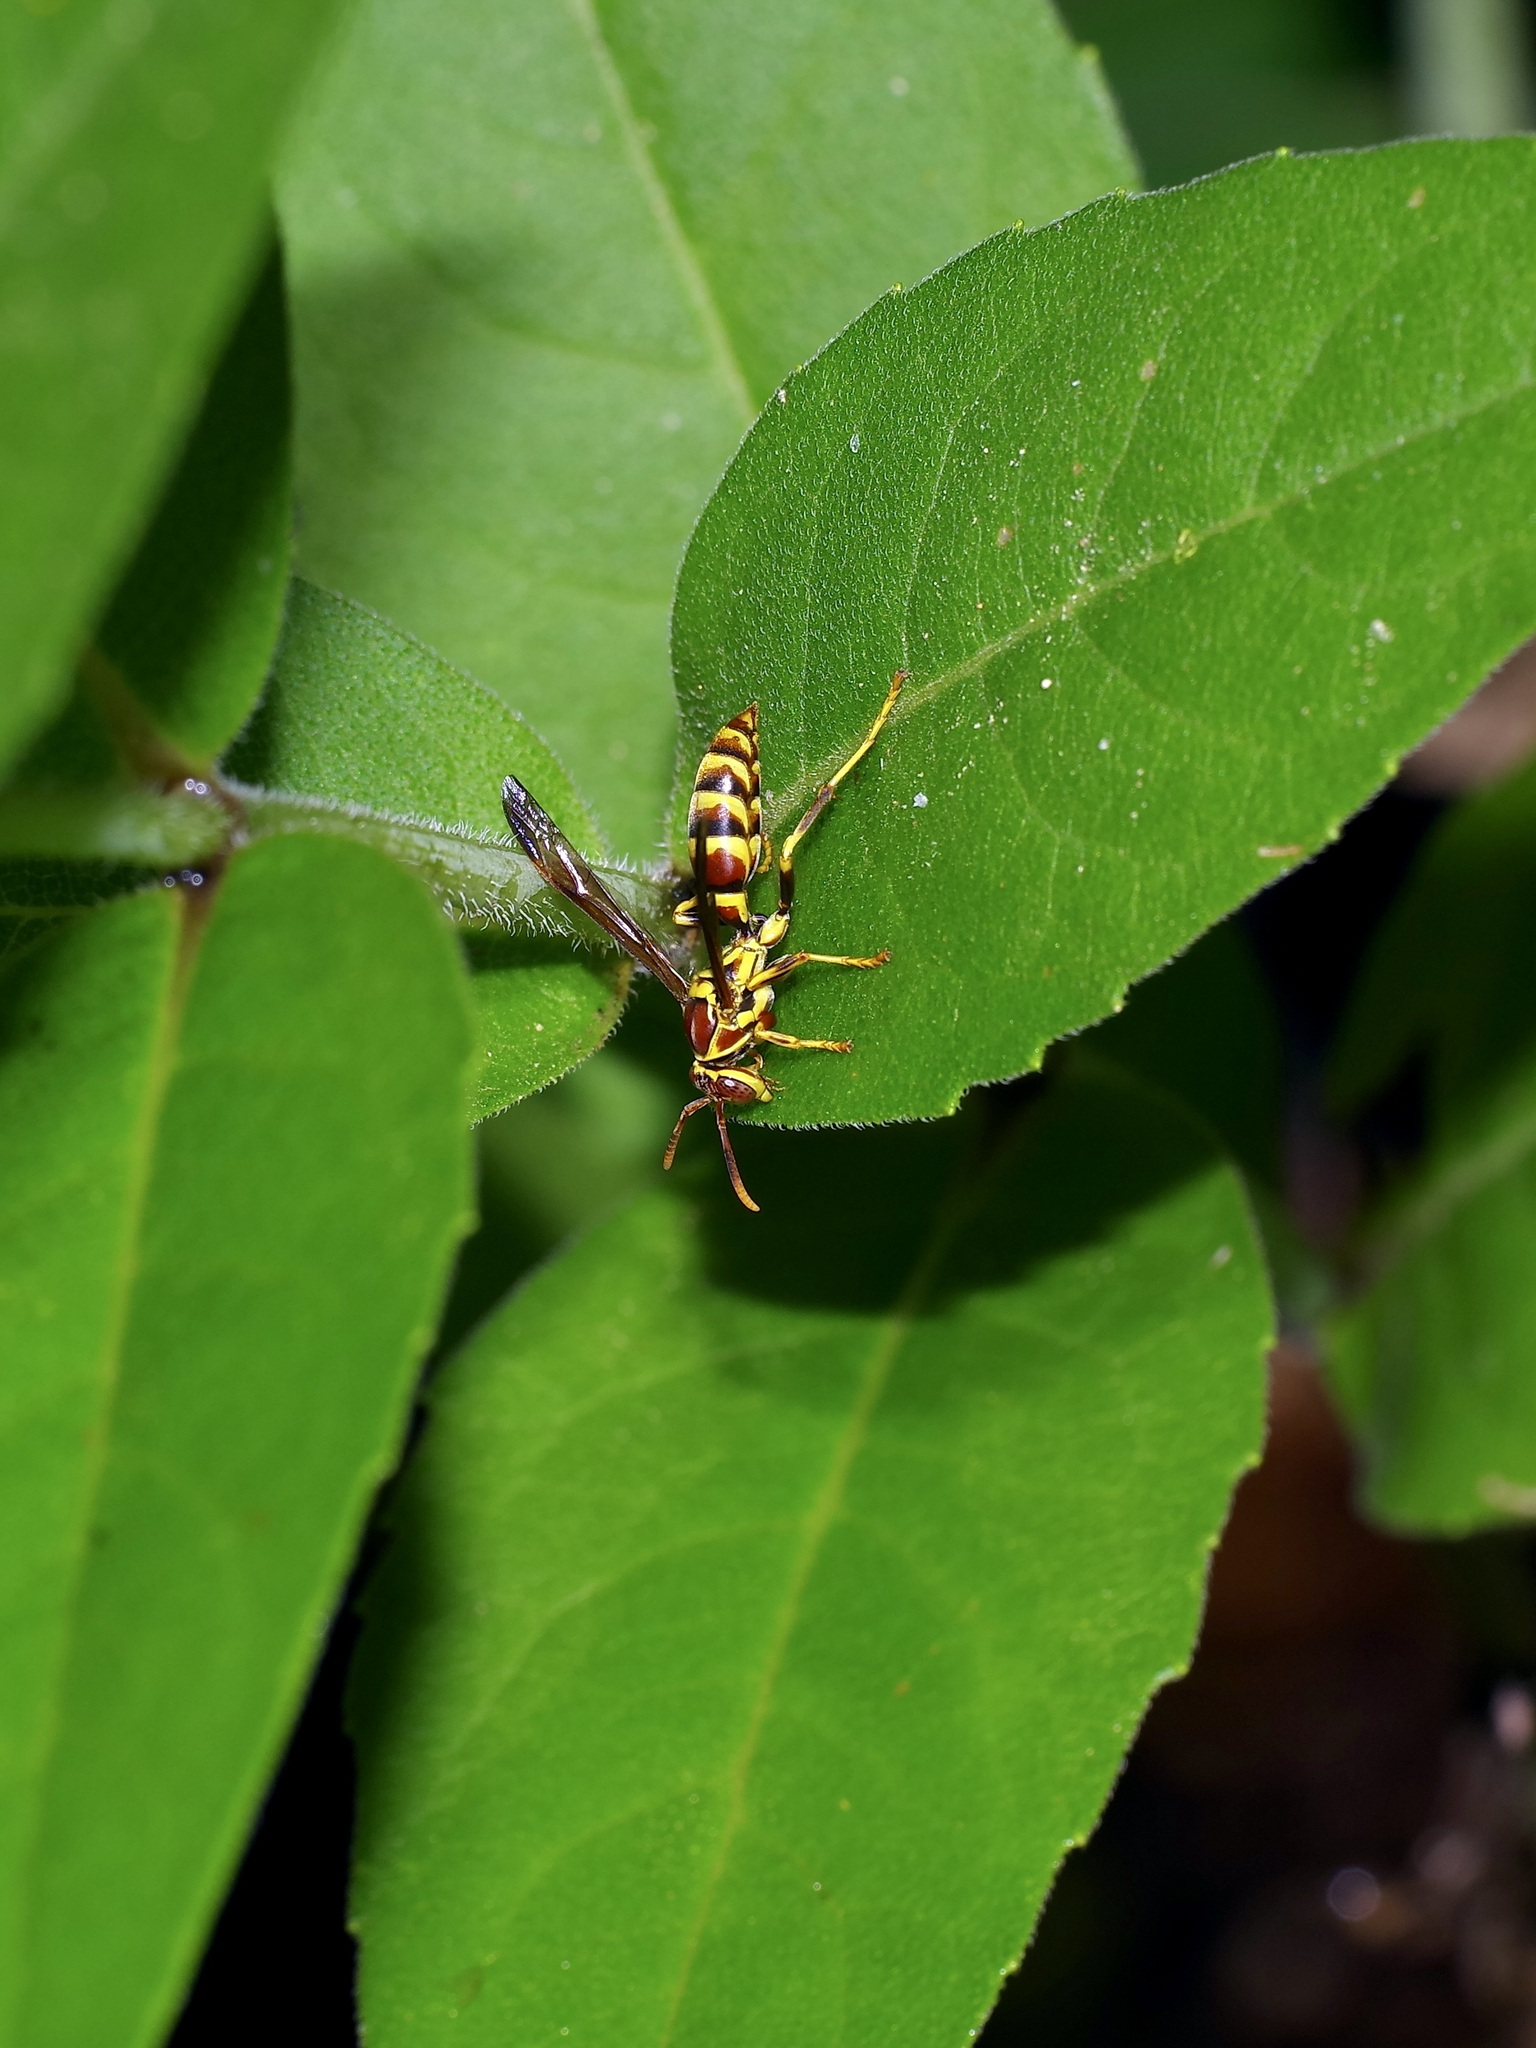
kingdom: Animalia
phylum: Arthropoda
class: Insecta
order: Hymenoptera
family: Eumenidae
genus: Polistes
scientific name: Polistes exclamans
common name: Paper wasp
